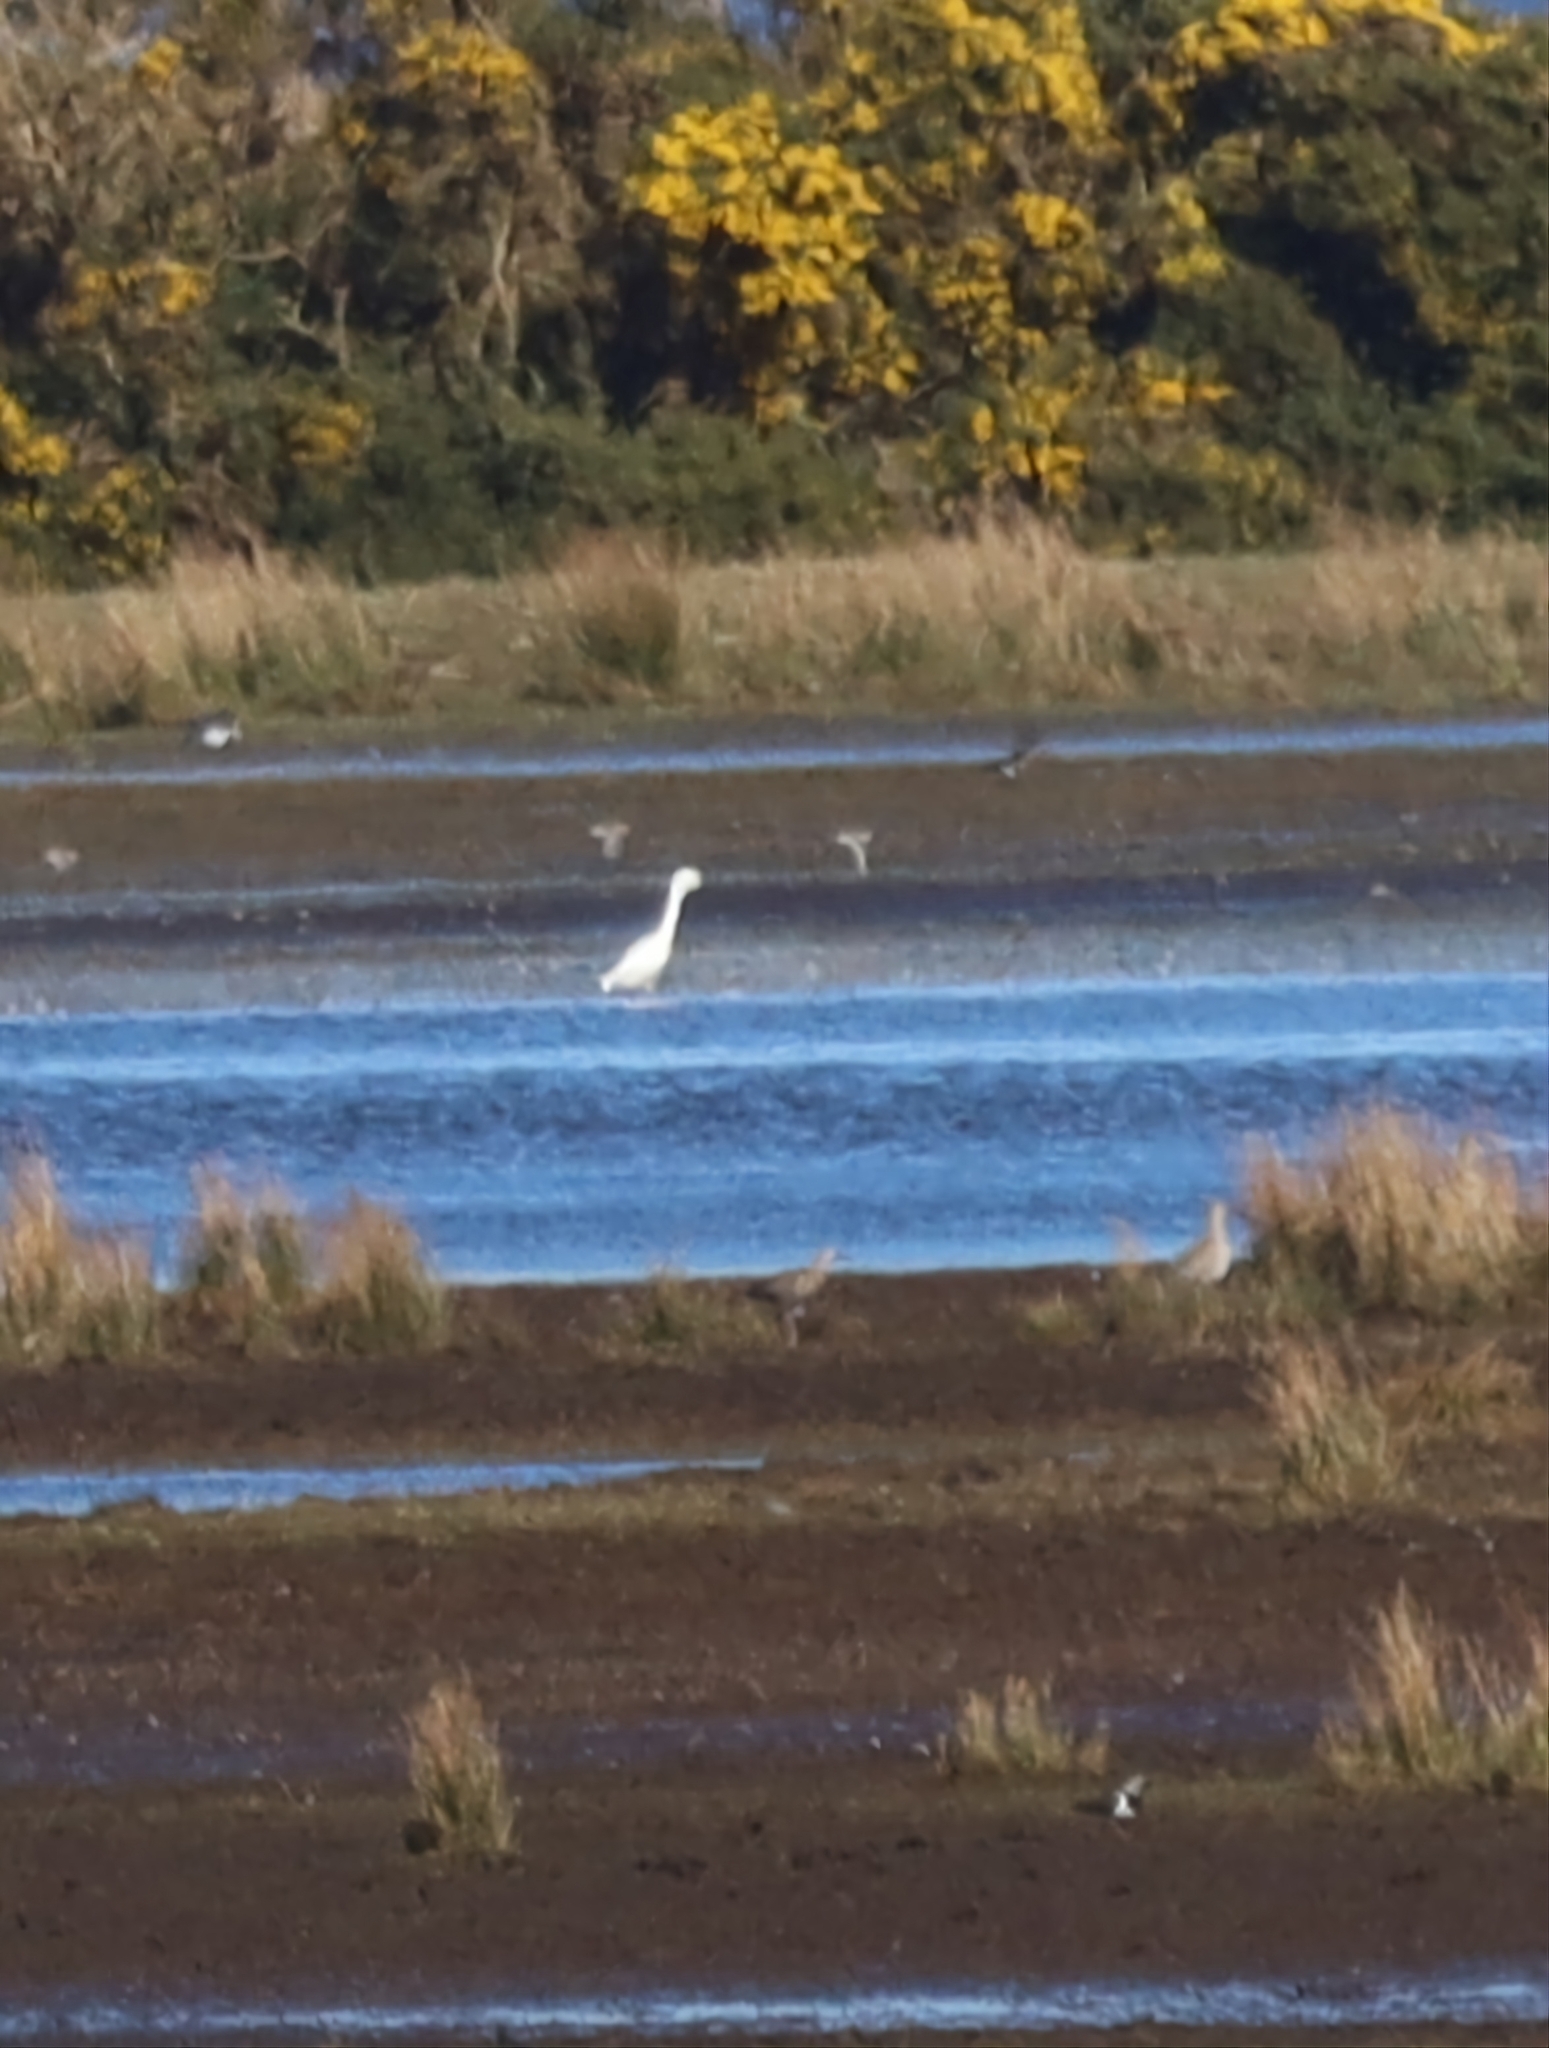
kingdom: Animalia
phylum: Chordata
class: Aves
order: Pelecaniformes
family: Ardeidae
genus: Egretta
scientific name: Egretta garzetta
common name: Little egret
